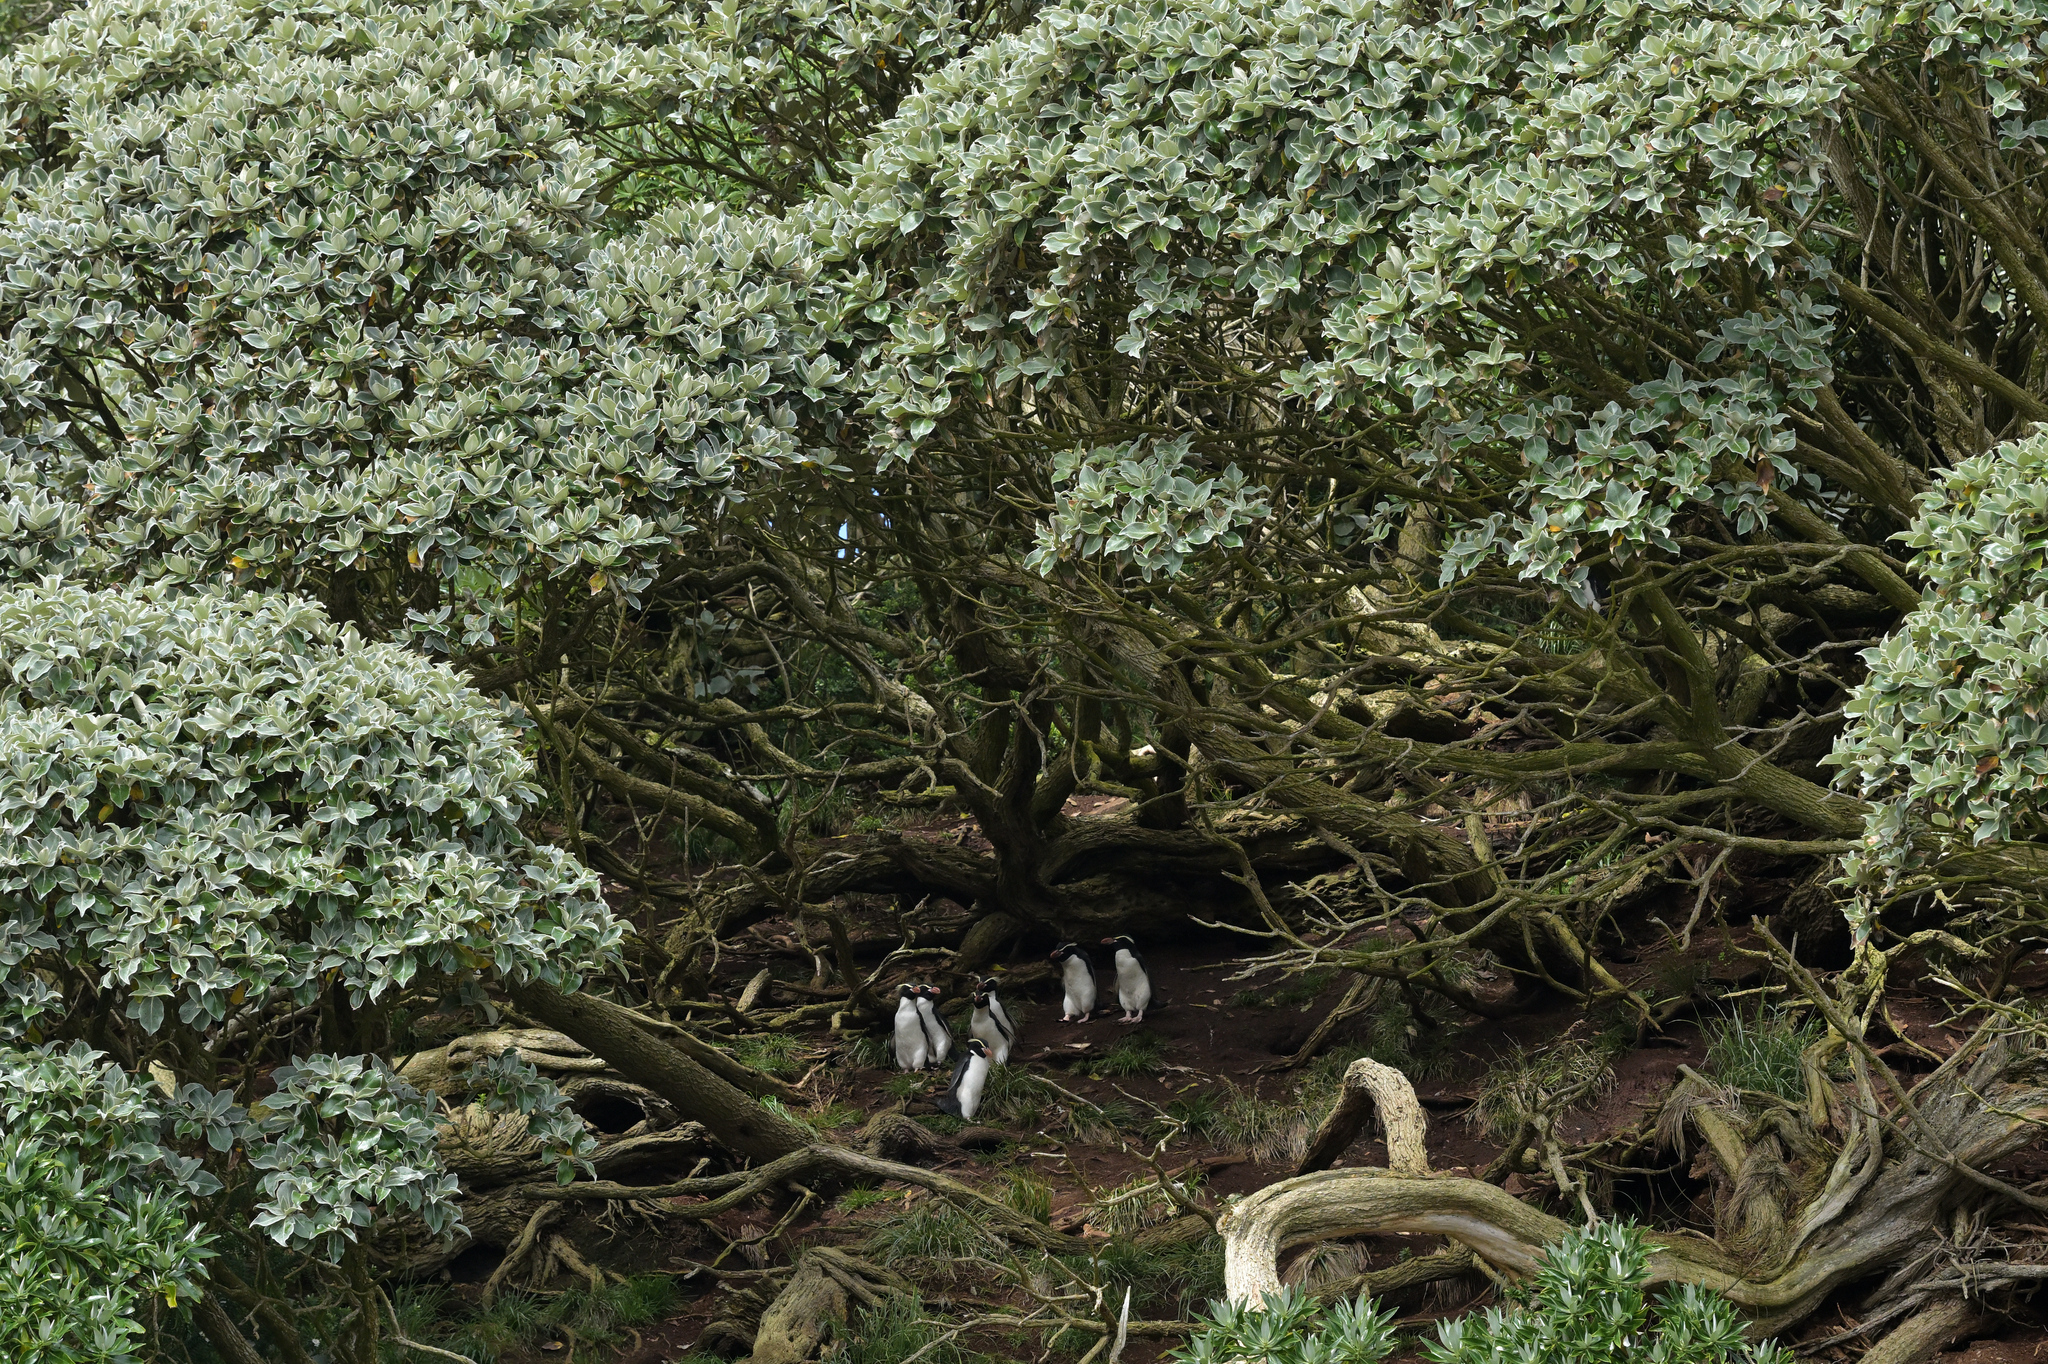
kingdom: Plantae
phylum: Tracheophyta
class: Magnoliopsida
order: Asterales
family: Asteraceae
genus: Macrolearia
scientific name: Macrolearia lyallii
